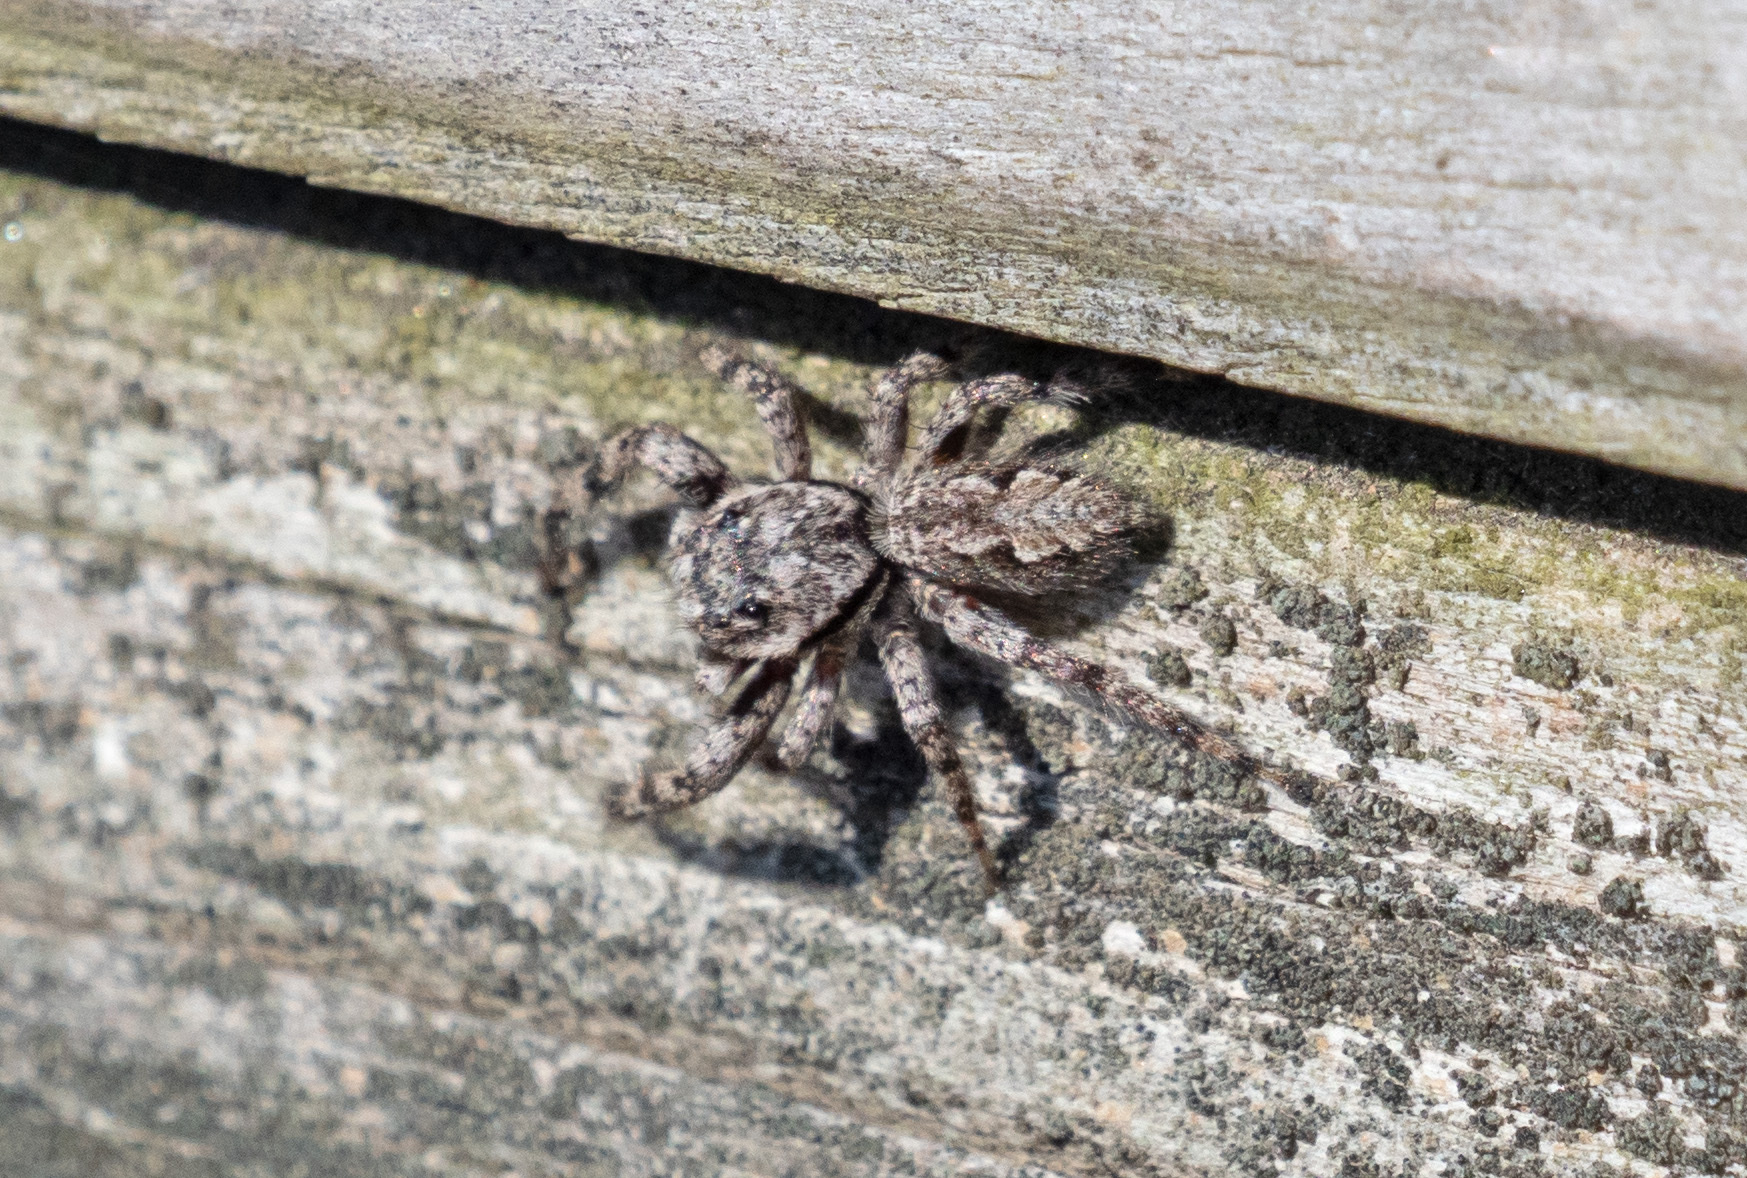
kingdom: Animalia
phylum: Arthropoda
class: Arachnida
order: Araneae
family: Salticidae
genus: Platycryptus
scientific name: Platycryptus undatus
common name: Tan jumping spider
